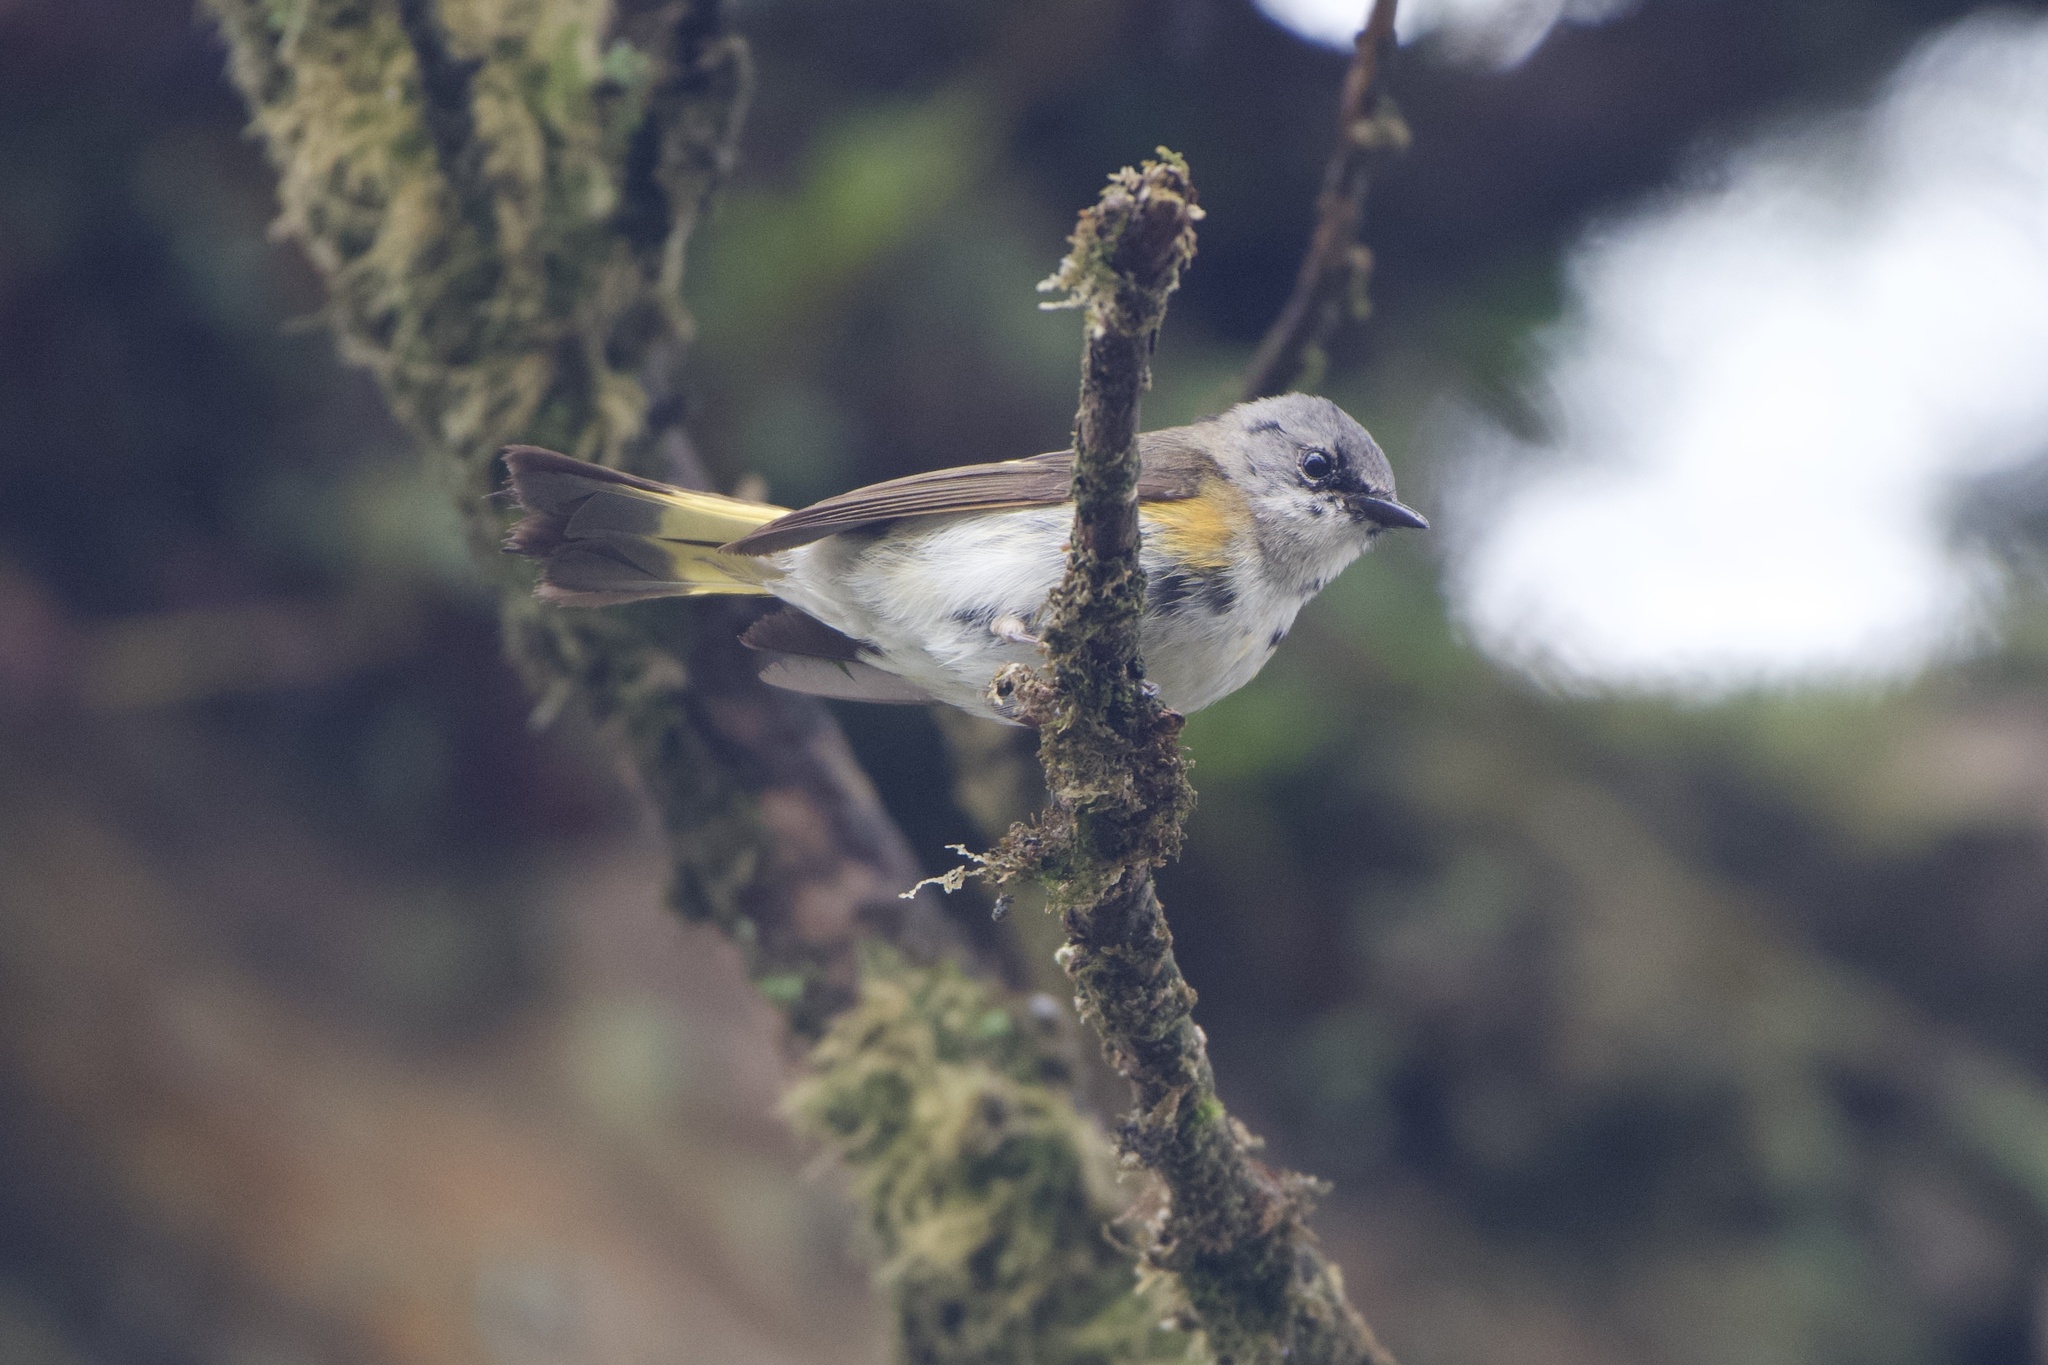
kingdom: Animalia
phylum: Chordata
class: Aves
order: Passeriformes
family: Parulidae
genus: Setophaga
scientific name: Setophaga ruticilla
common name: American redstart
